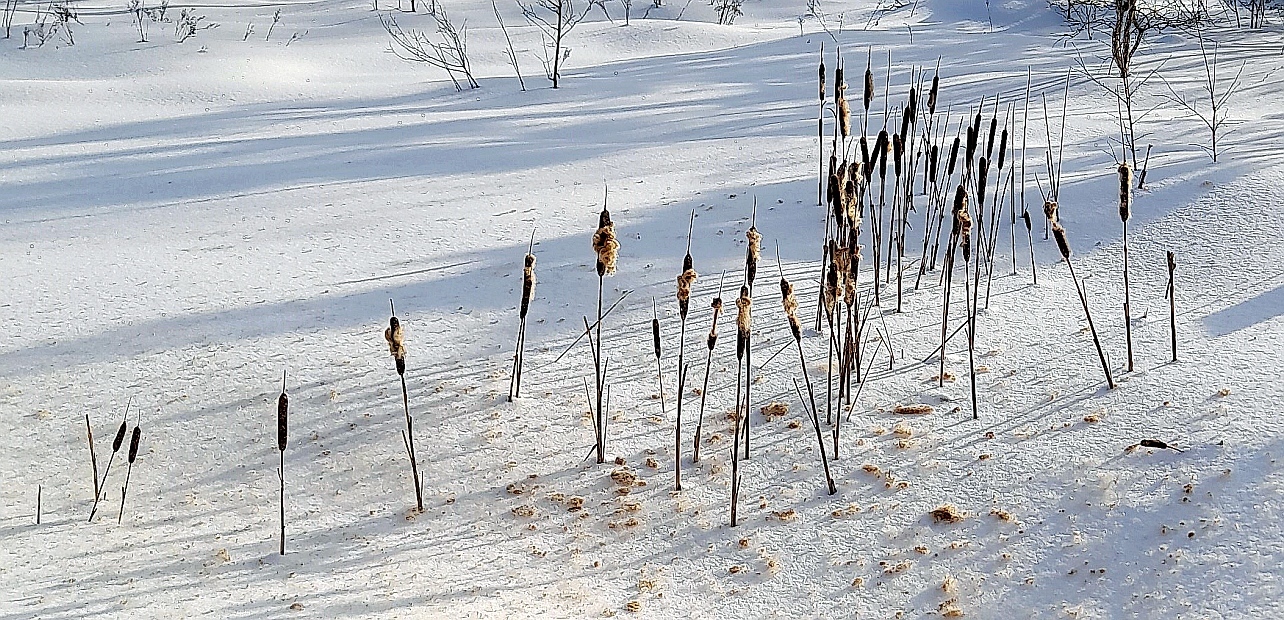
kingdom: Plantae
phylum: Tracheophyta
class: Liliopsida
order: Poales
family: Typhaceae
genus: Typha
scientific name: Typha latifolia
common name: Broadleaf cattail
